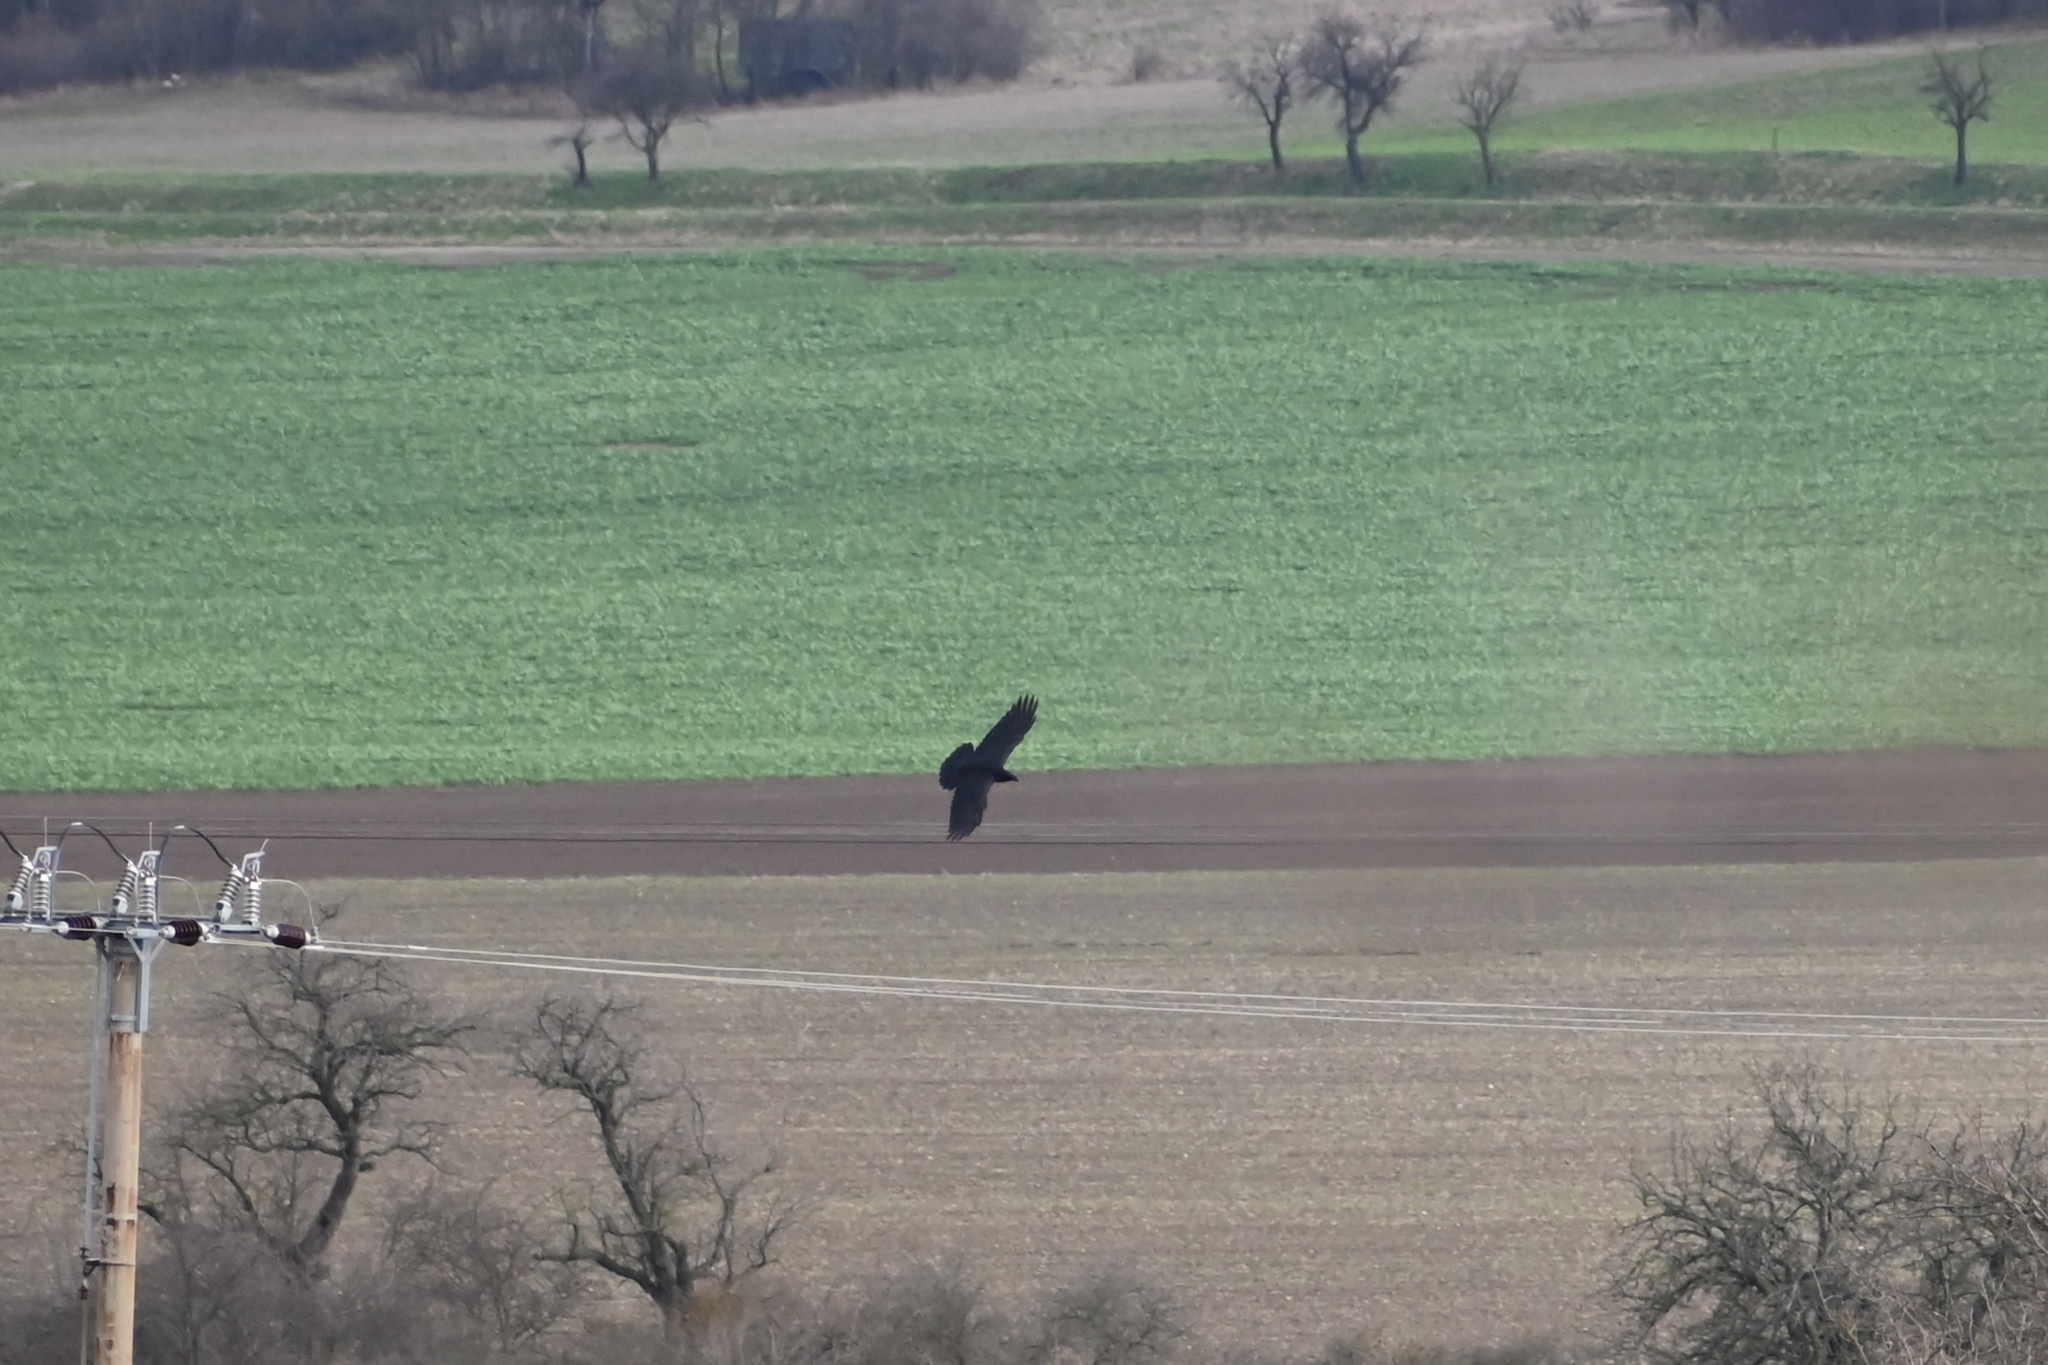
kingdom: Animalia
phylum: Chordata
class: Aves
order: Passeriformes
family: Corvidae
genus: Corvus
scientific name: Corvus corax
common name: Common raven
